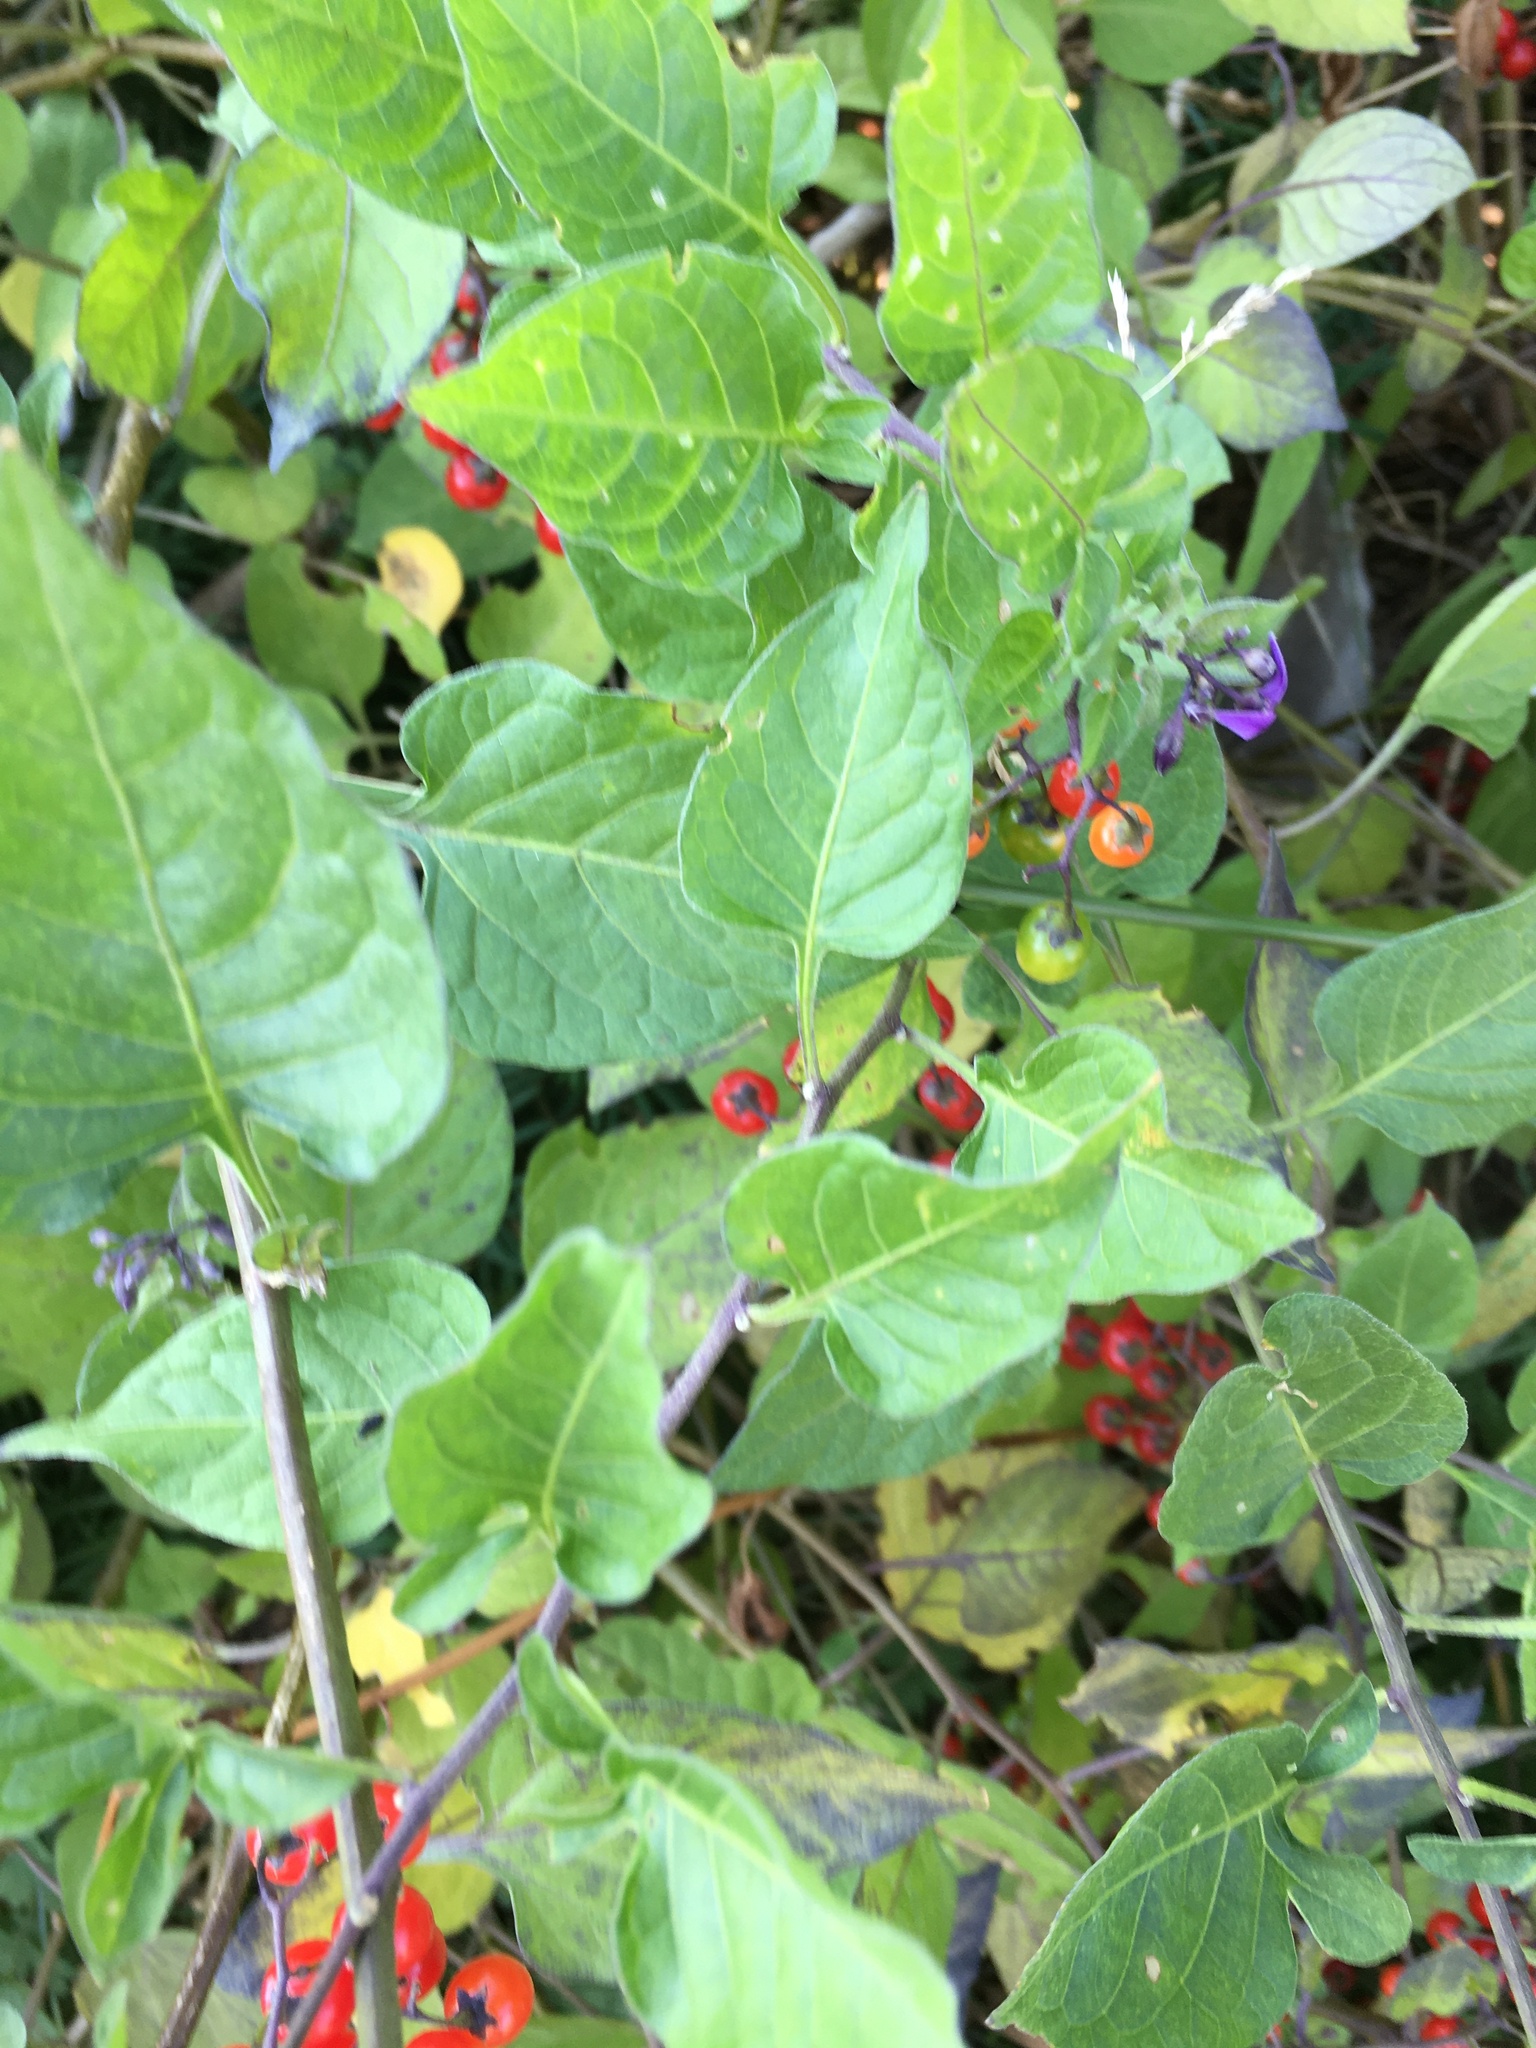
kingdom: Plantae
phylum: Tracheophyta
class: Magnoliopsida
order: Solanales
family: Solanaceae
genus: Solanum
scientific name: Solanum dulcamara
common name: Climbing nightshade
